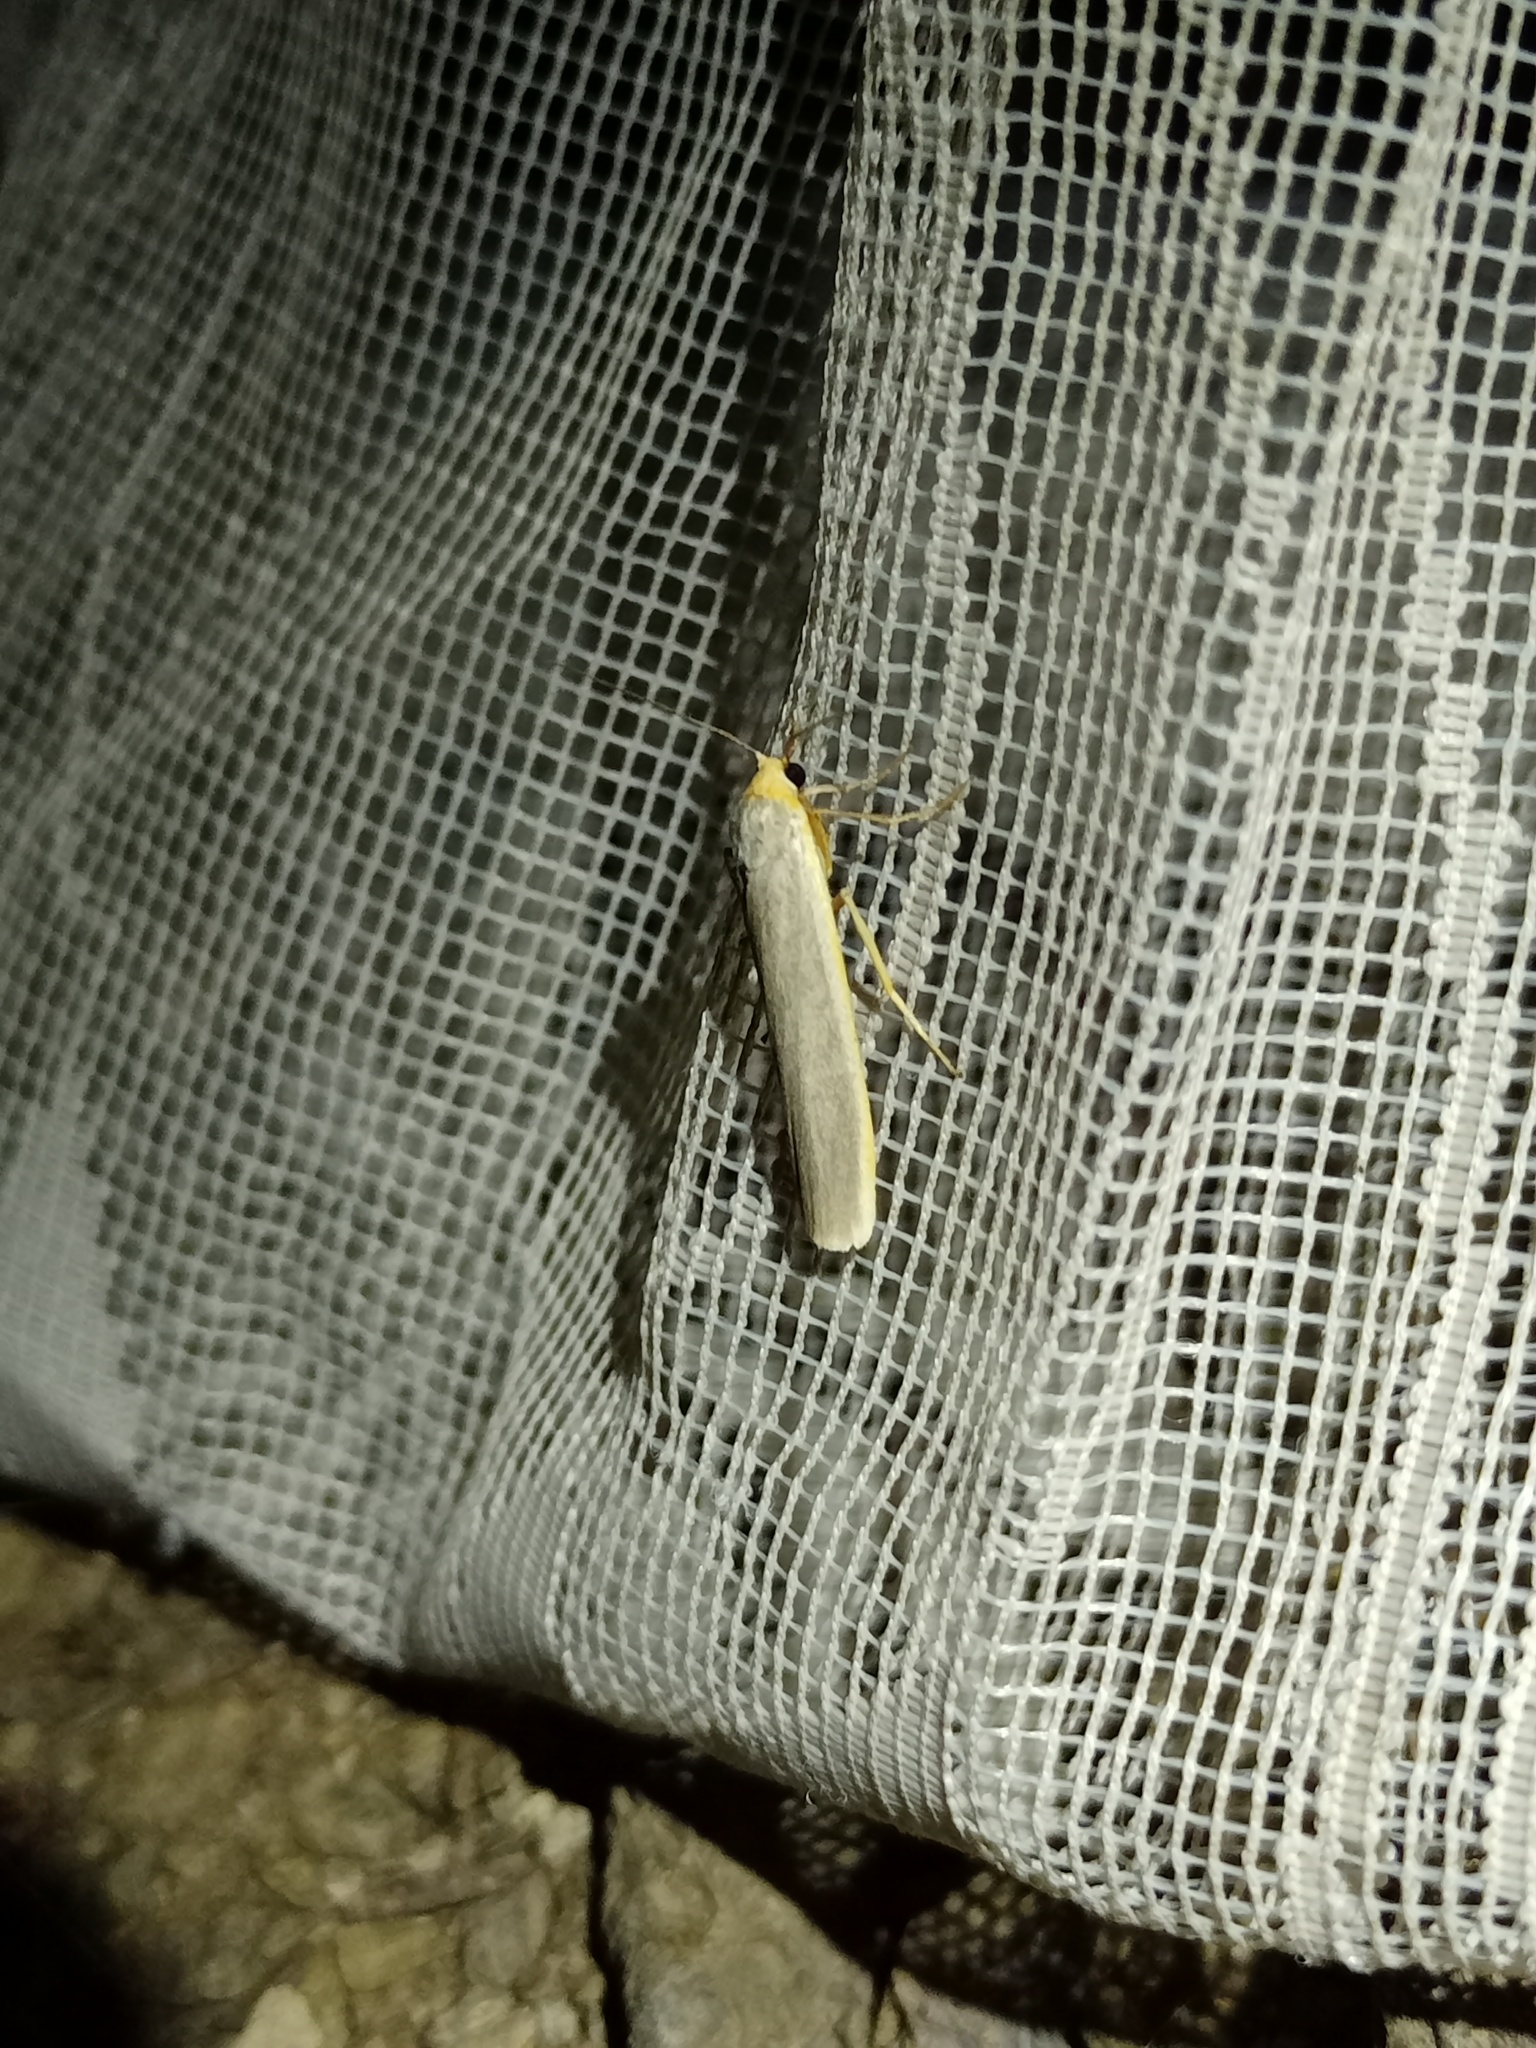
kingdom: Animalia
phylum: Arthropoda
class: Insecta
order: Lepidoptera
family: Erebidae
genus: Manulea
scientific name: Manulea complana
